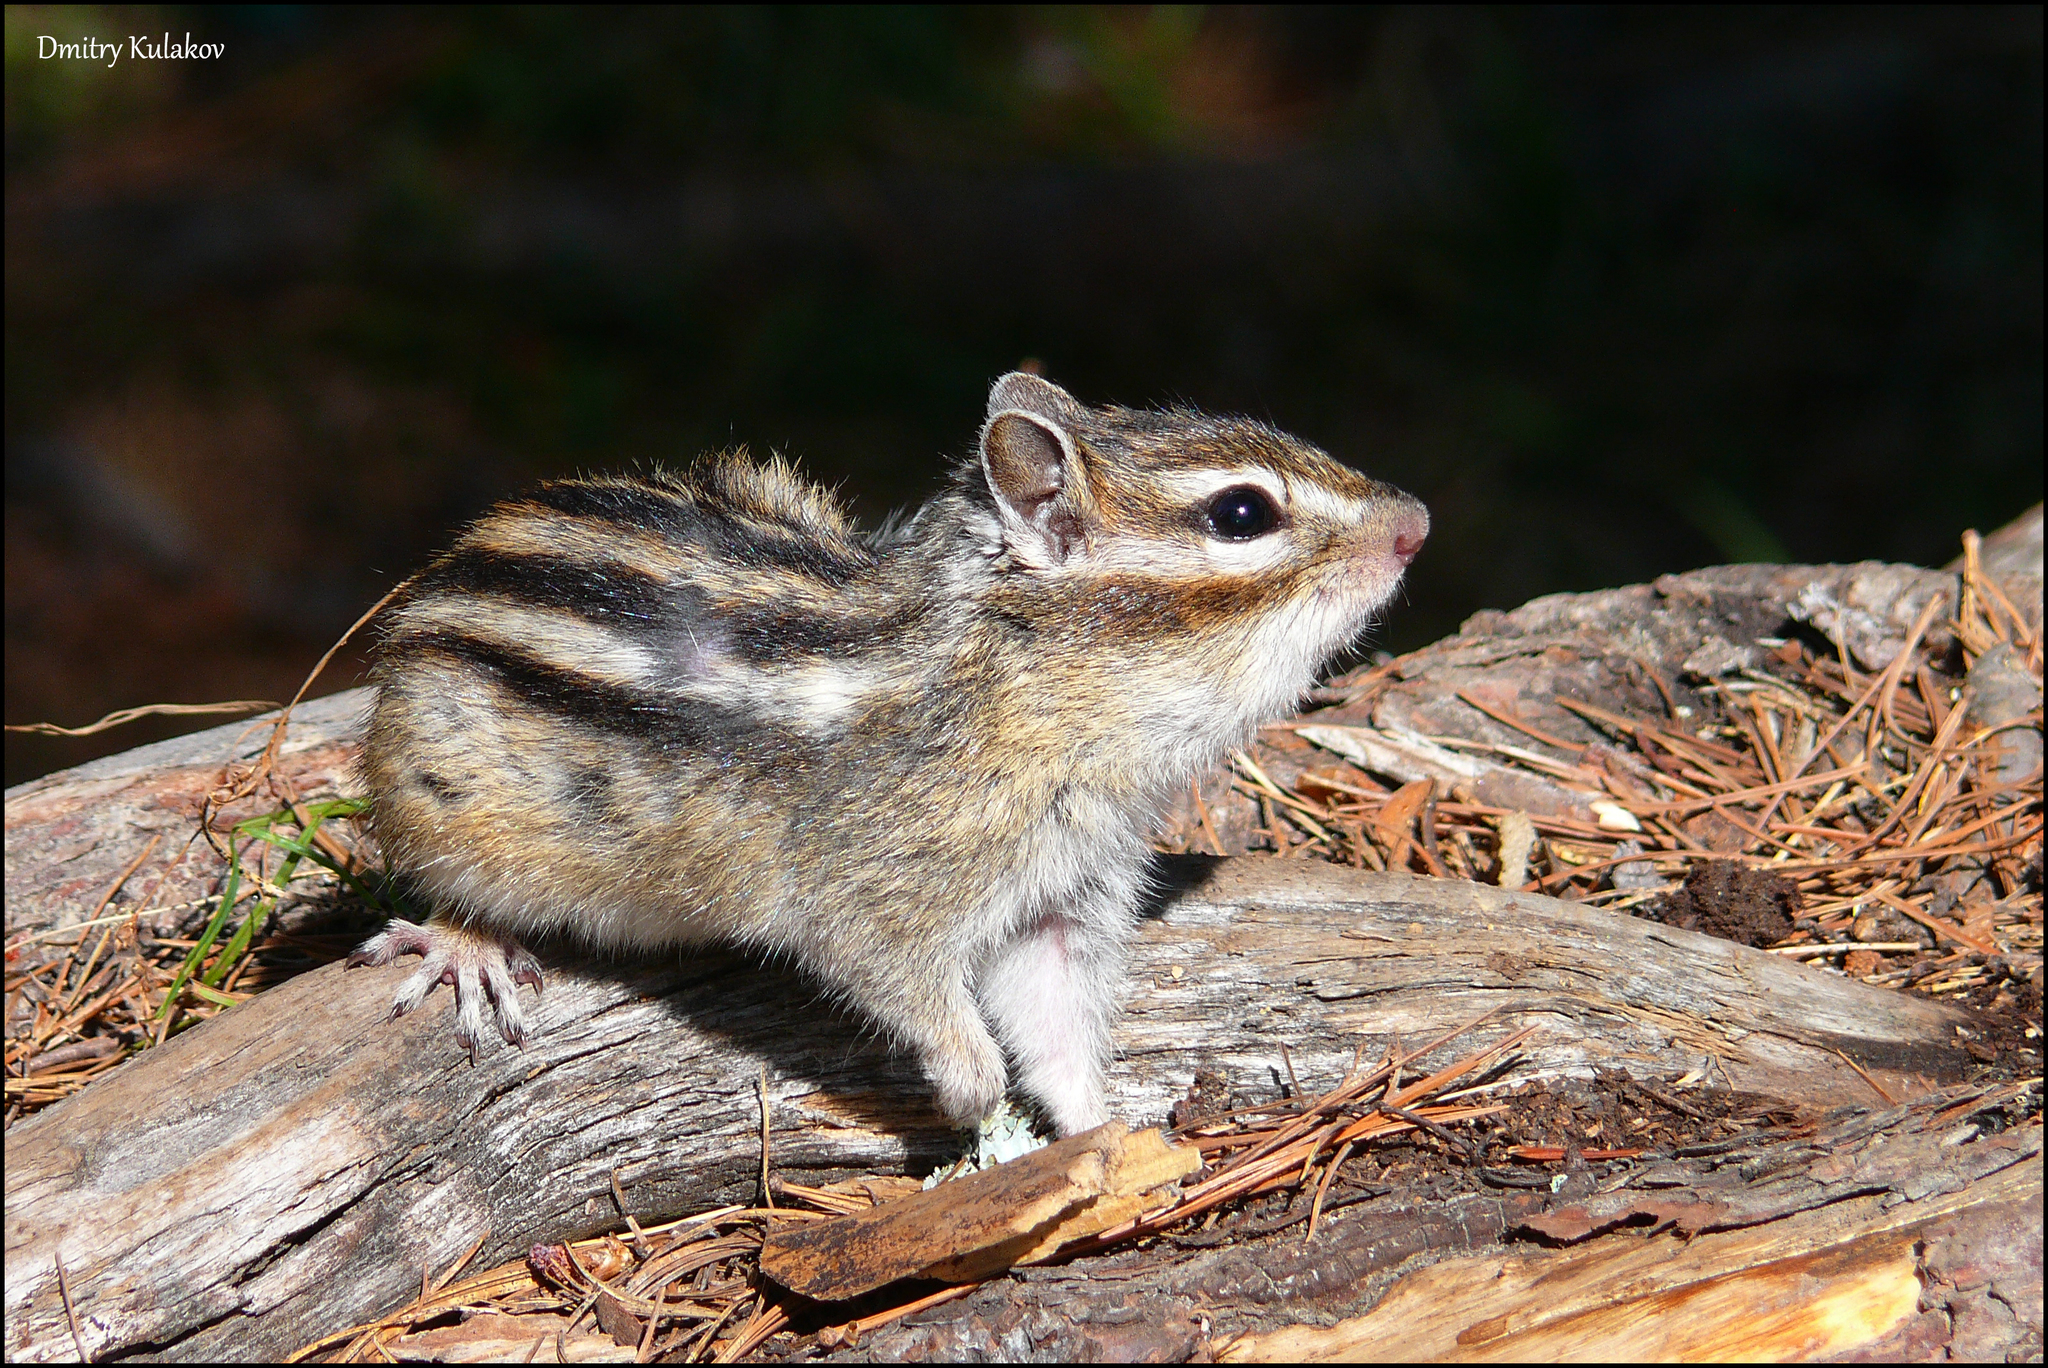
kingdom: Animalia
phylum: Chordata
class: Mammalia
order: Rodentia
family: Sciuridae
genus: Tamias
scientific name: Tamias sibiricus
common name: Siberian chipmunk
